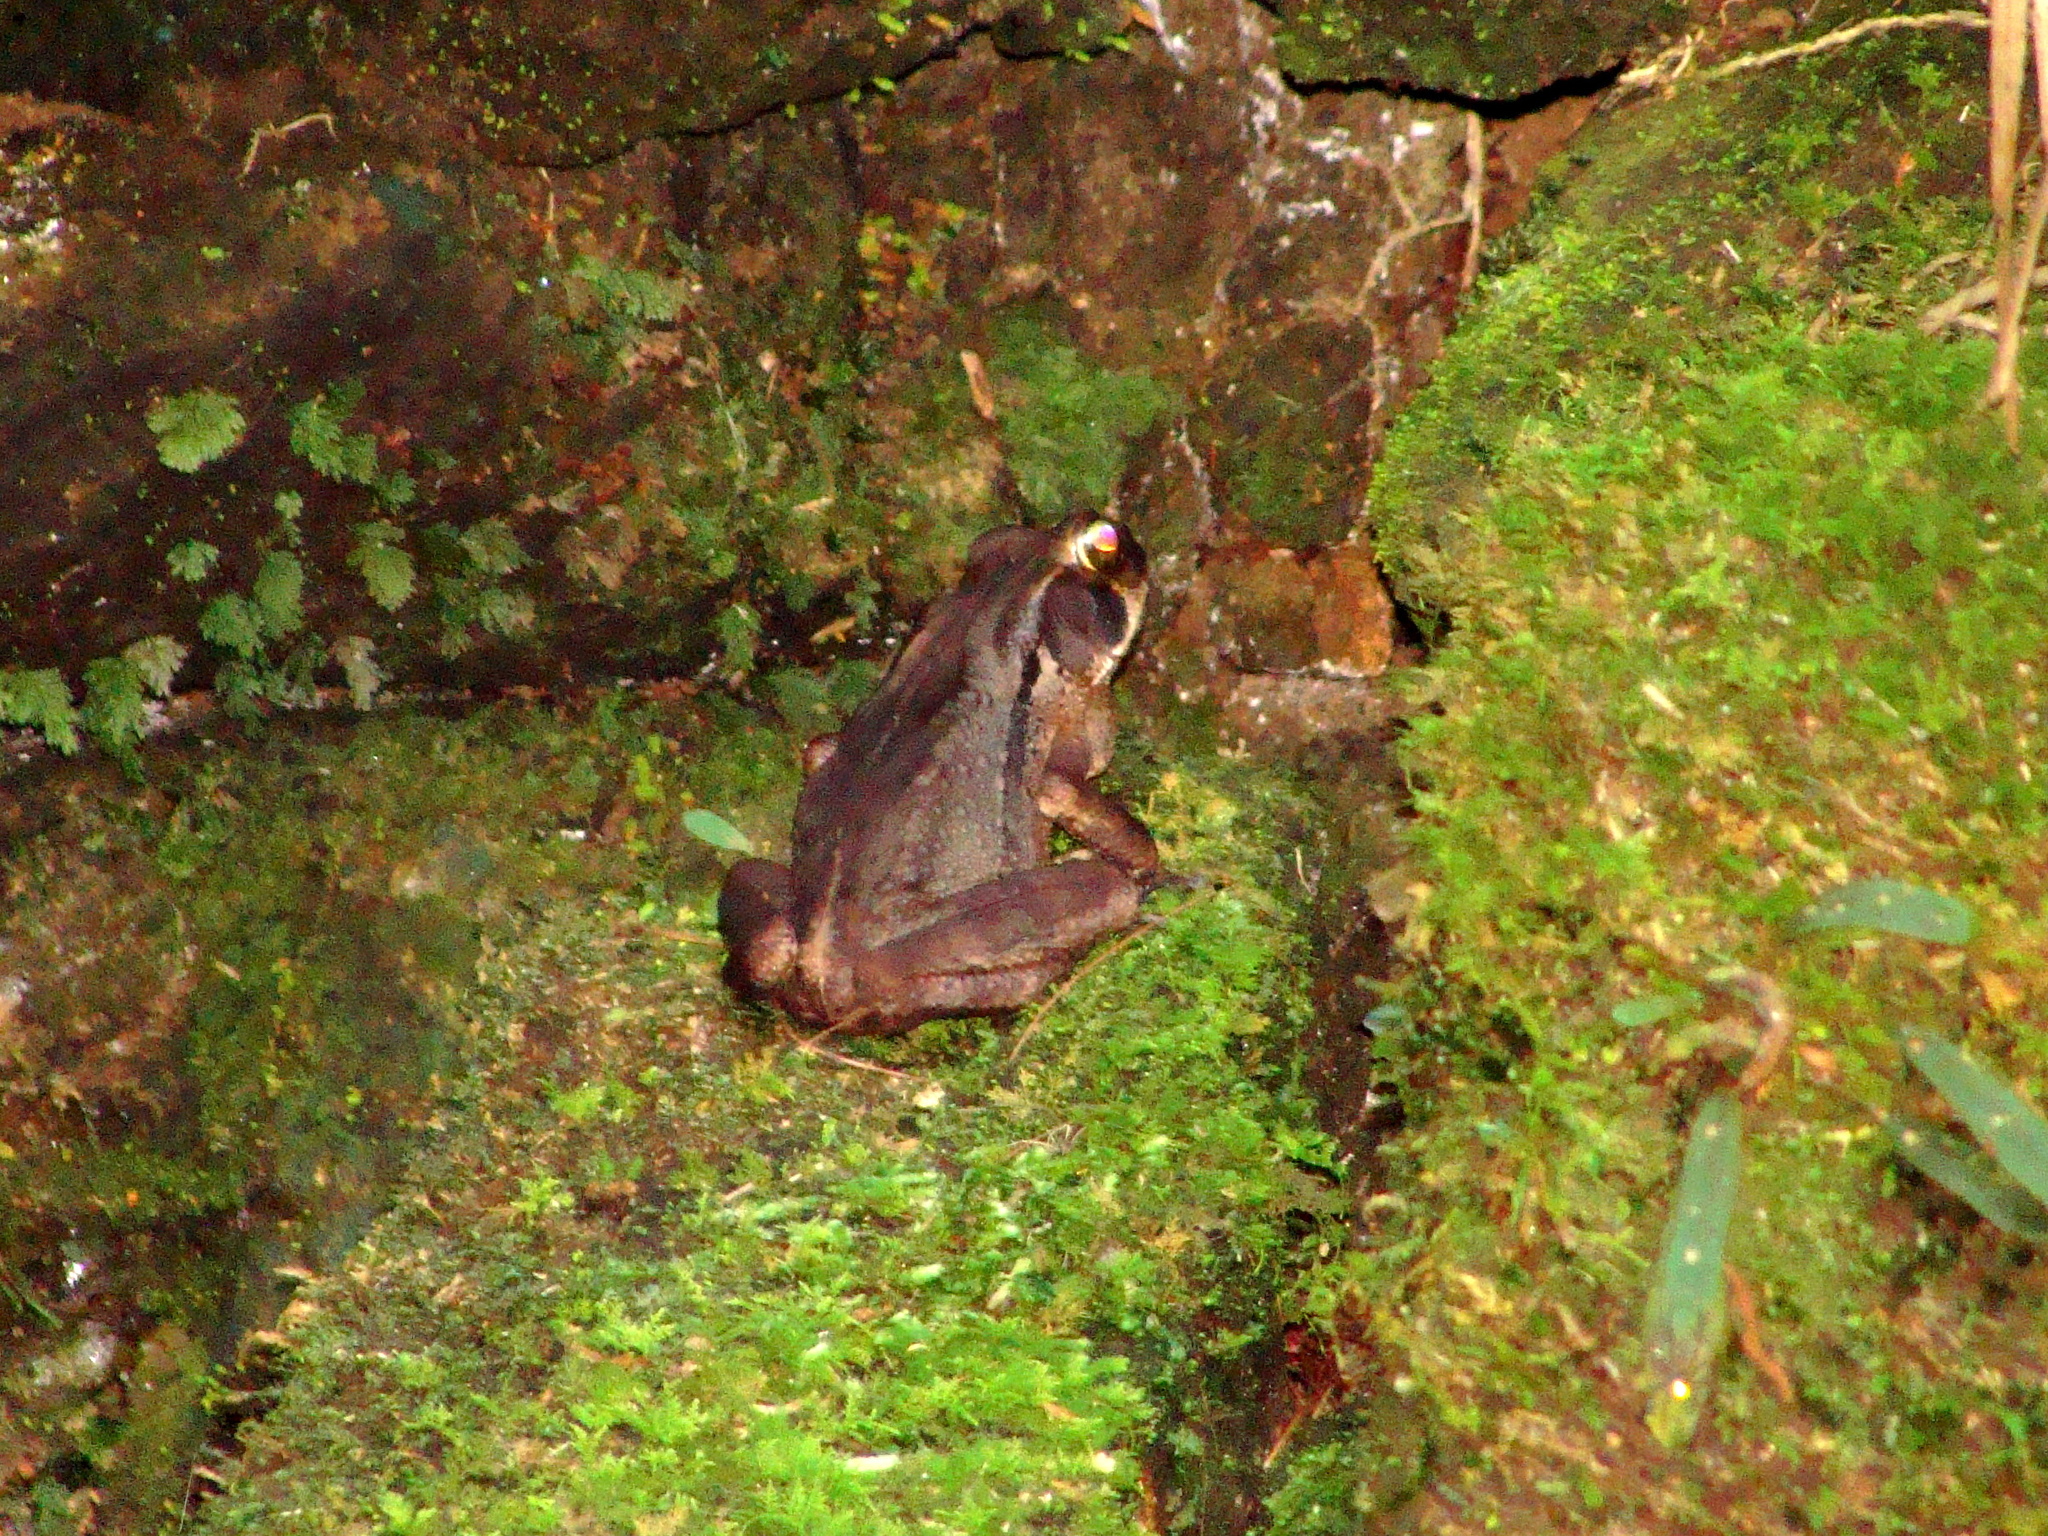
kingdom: Animalia
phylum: Chordata
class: Amphibia
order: Anura
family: Bufonidae
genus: Rhinella
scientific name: Rhinella ornata
